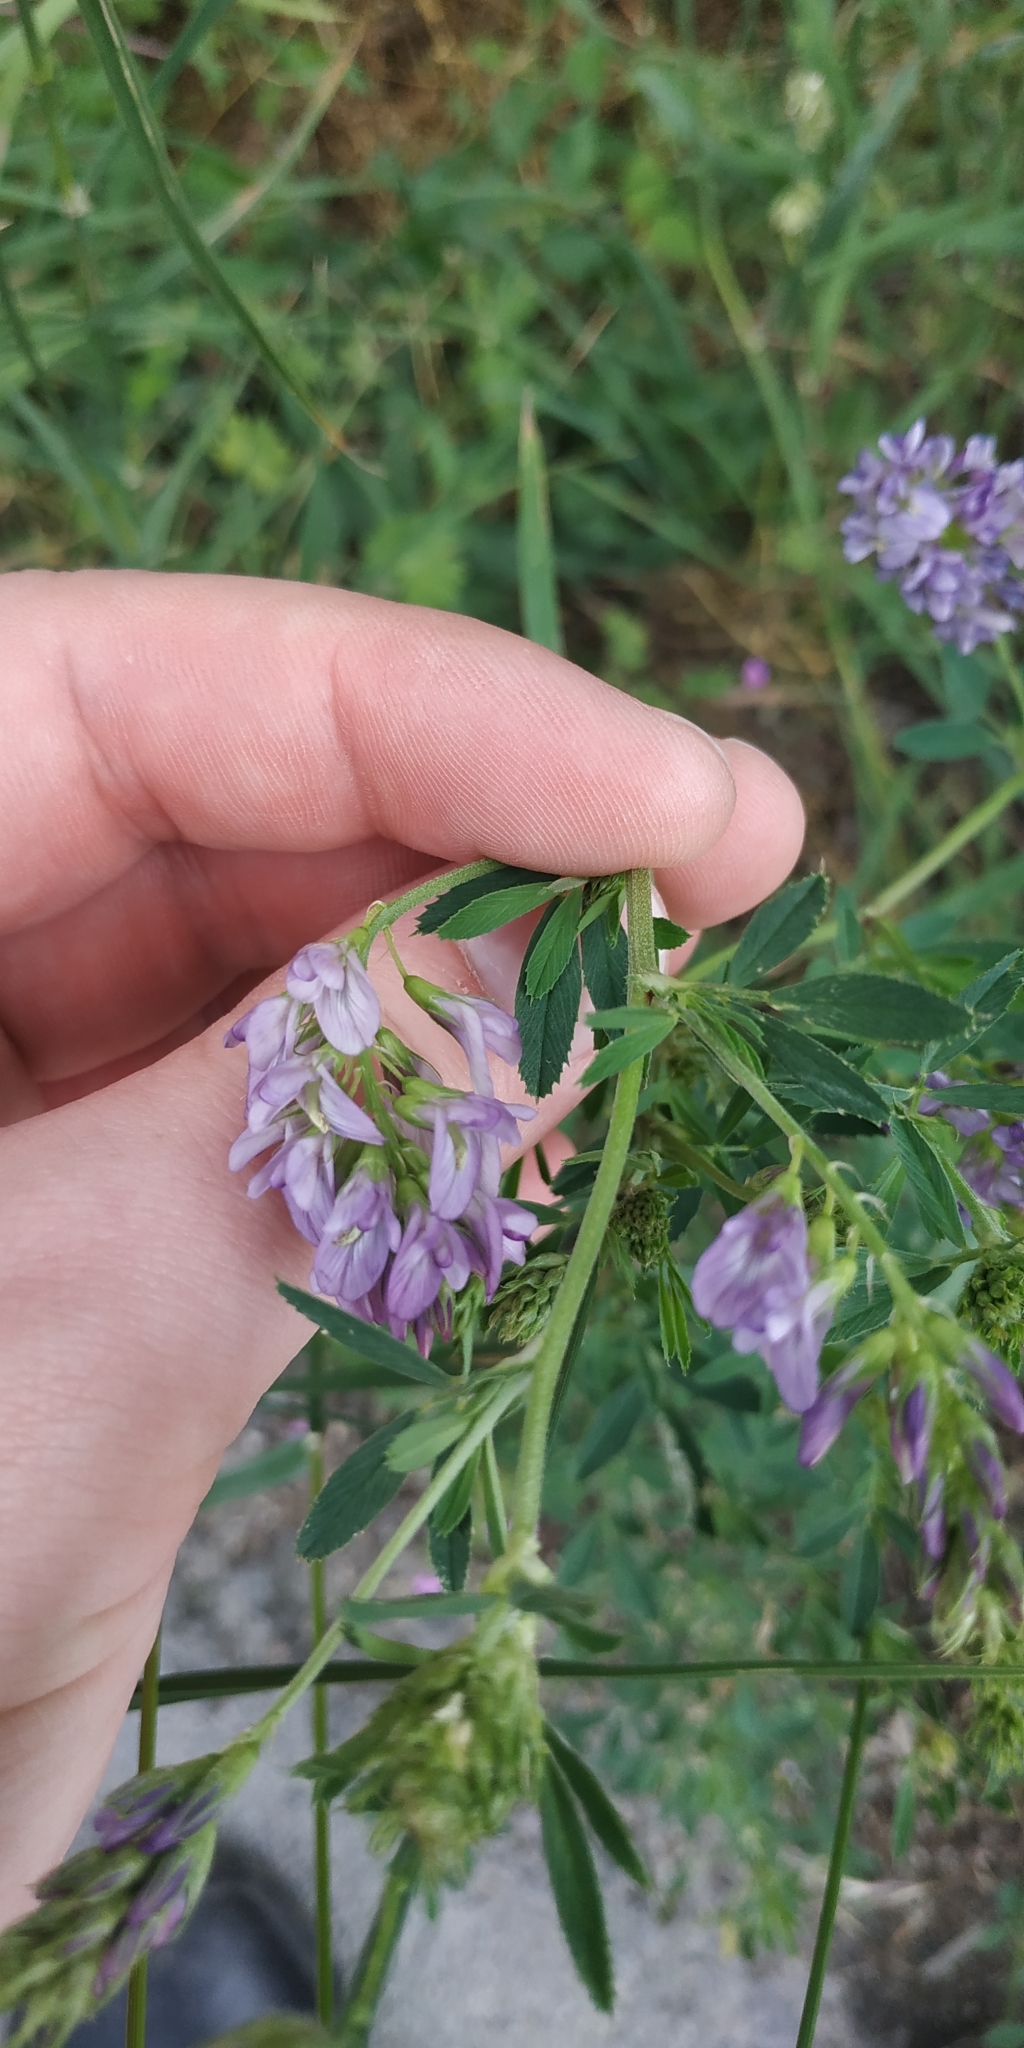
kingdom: Plantae
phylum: Tracheophyta
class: Magnoliopsida
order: Fabales
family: Fabaceae
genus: Medicago
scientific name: Medicago varia
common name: Sand lucerne
